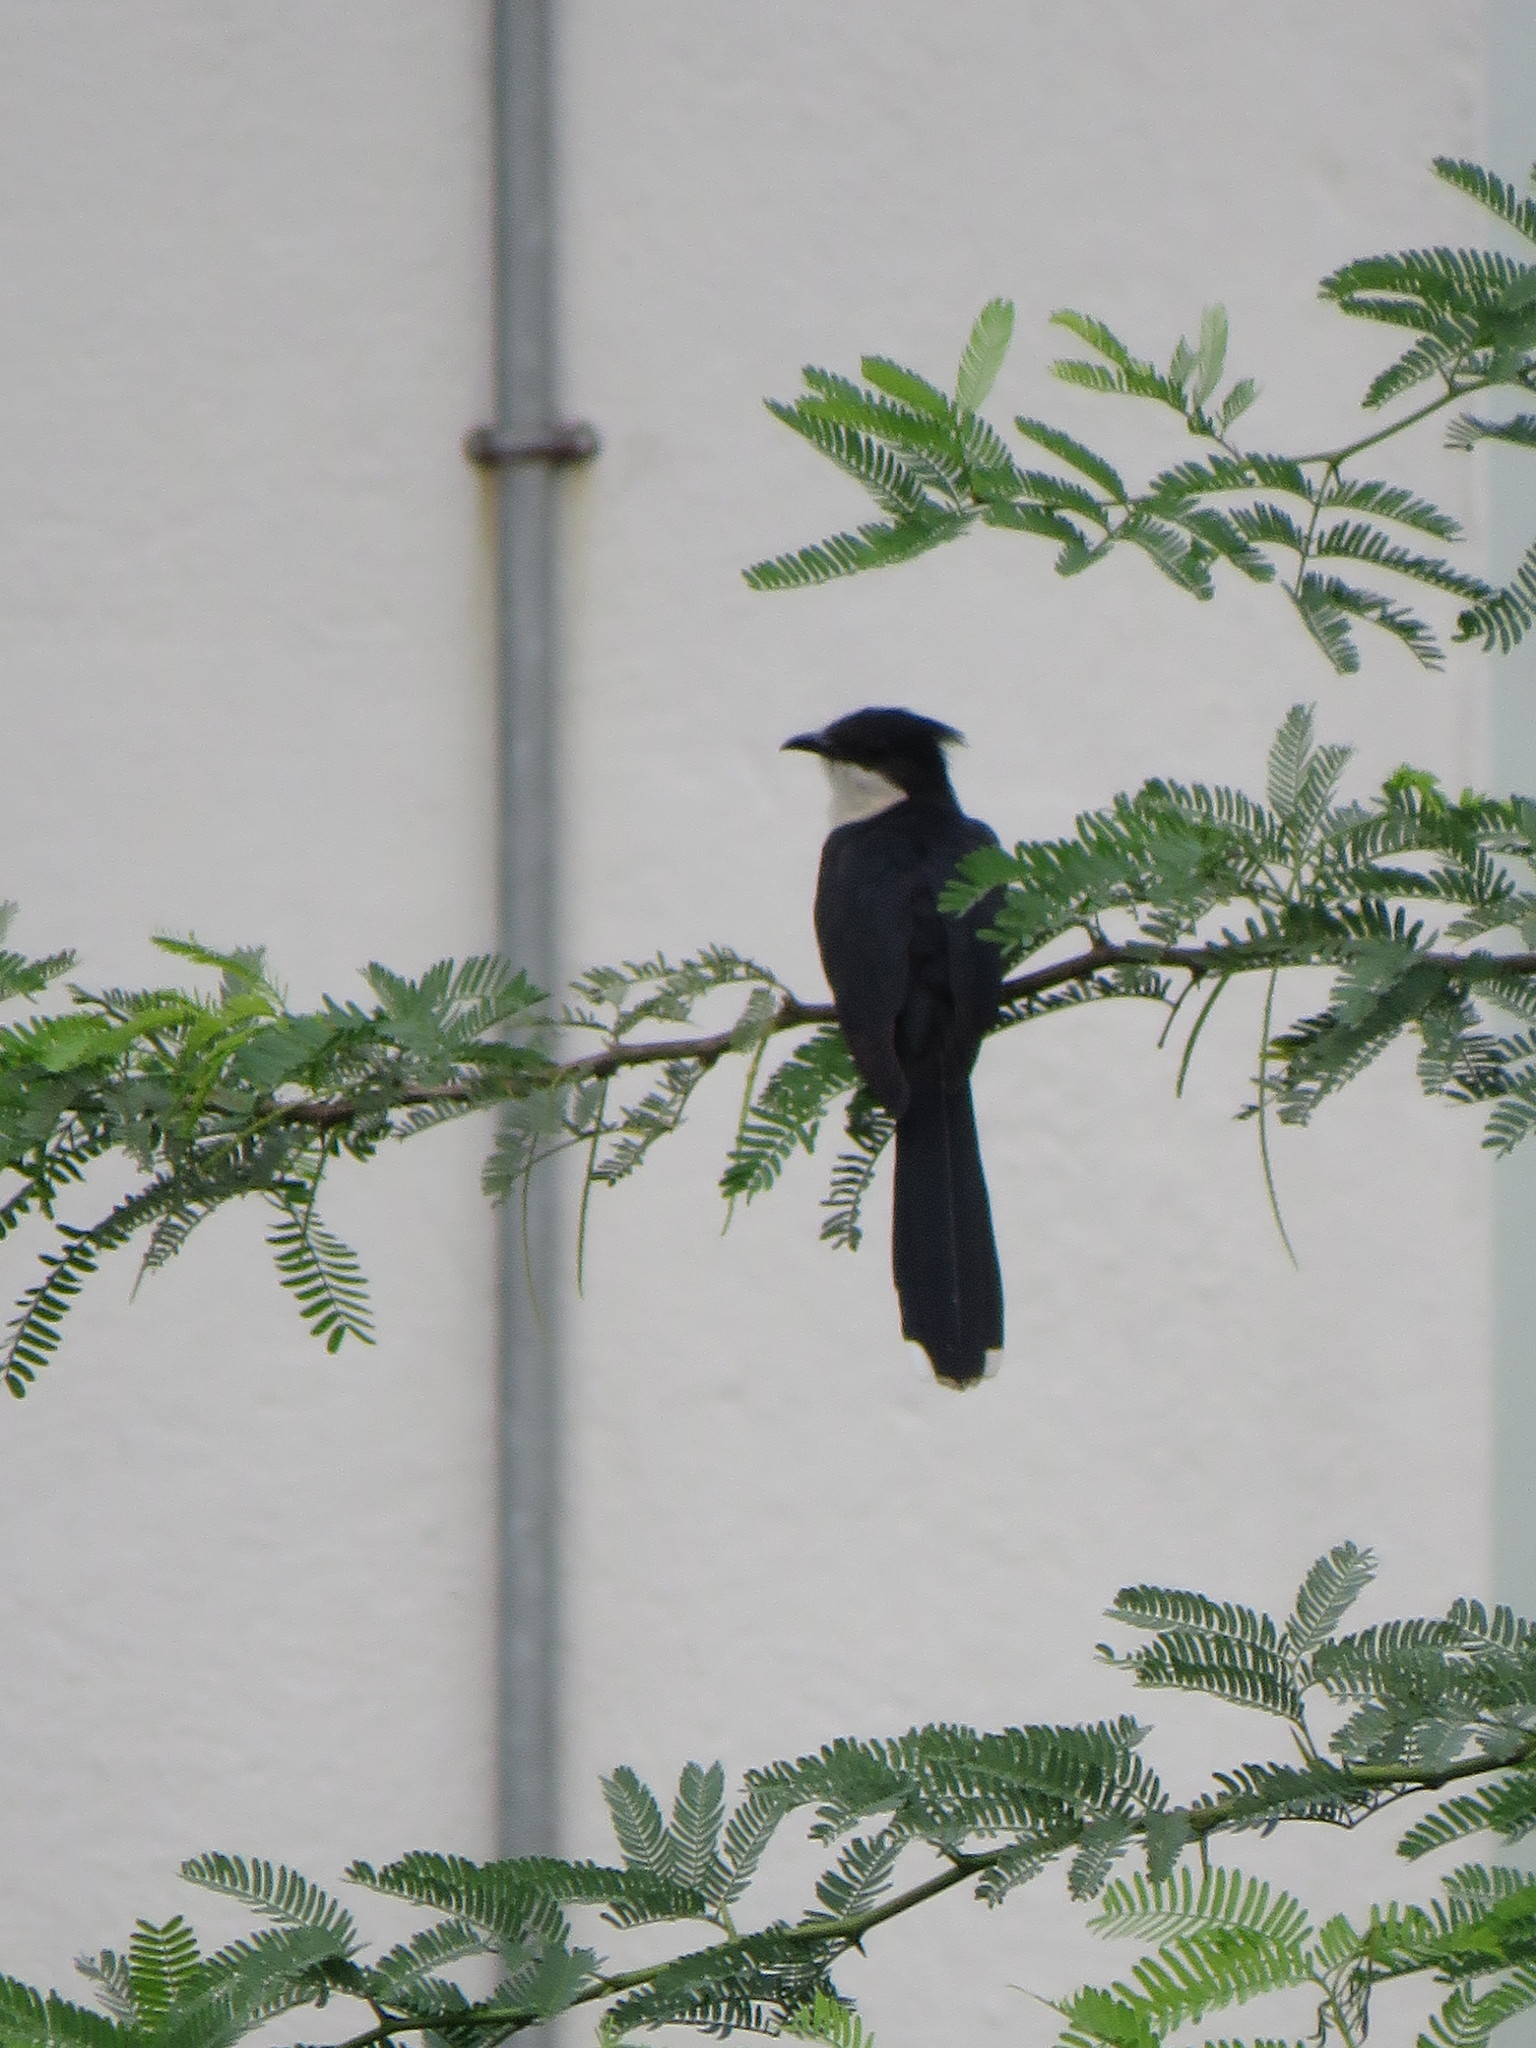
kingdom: Animalia
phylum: Chordata
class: Aves
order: Cuculiformes
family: Cuculidae
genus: Clamator
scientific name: Clamator jacobinus
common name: Jacobin cuckoo
